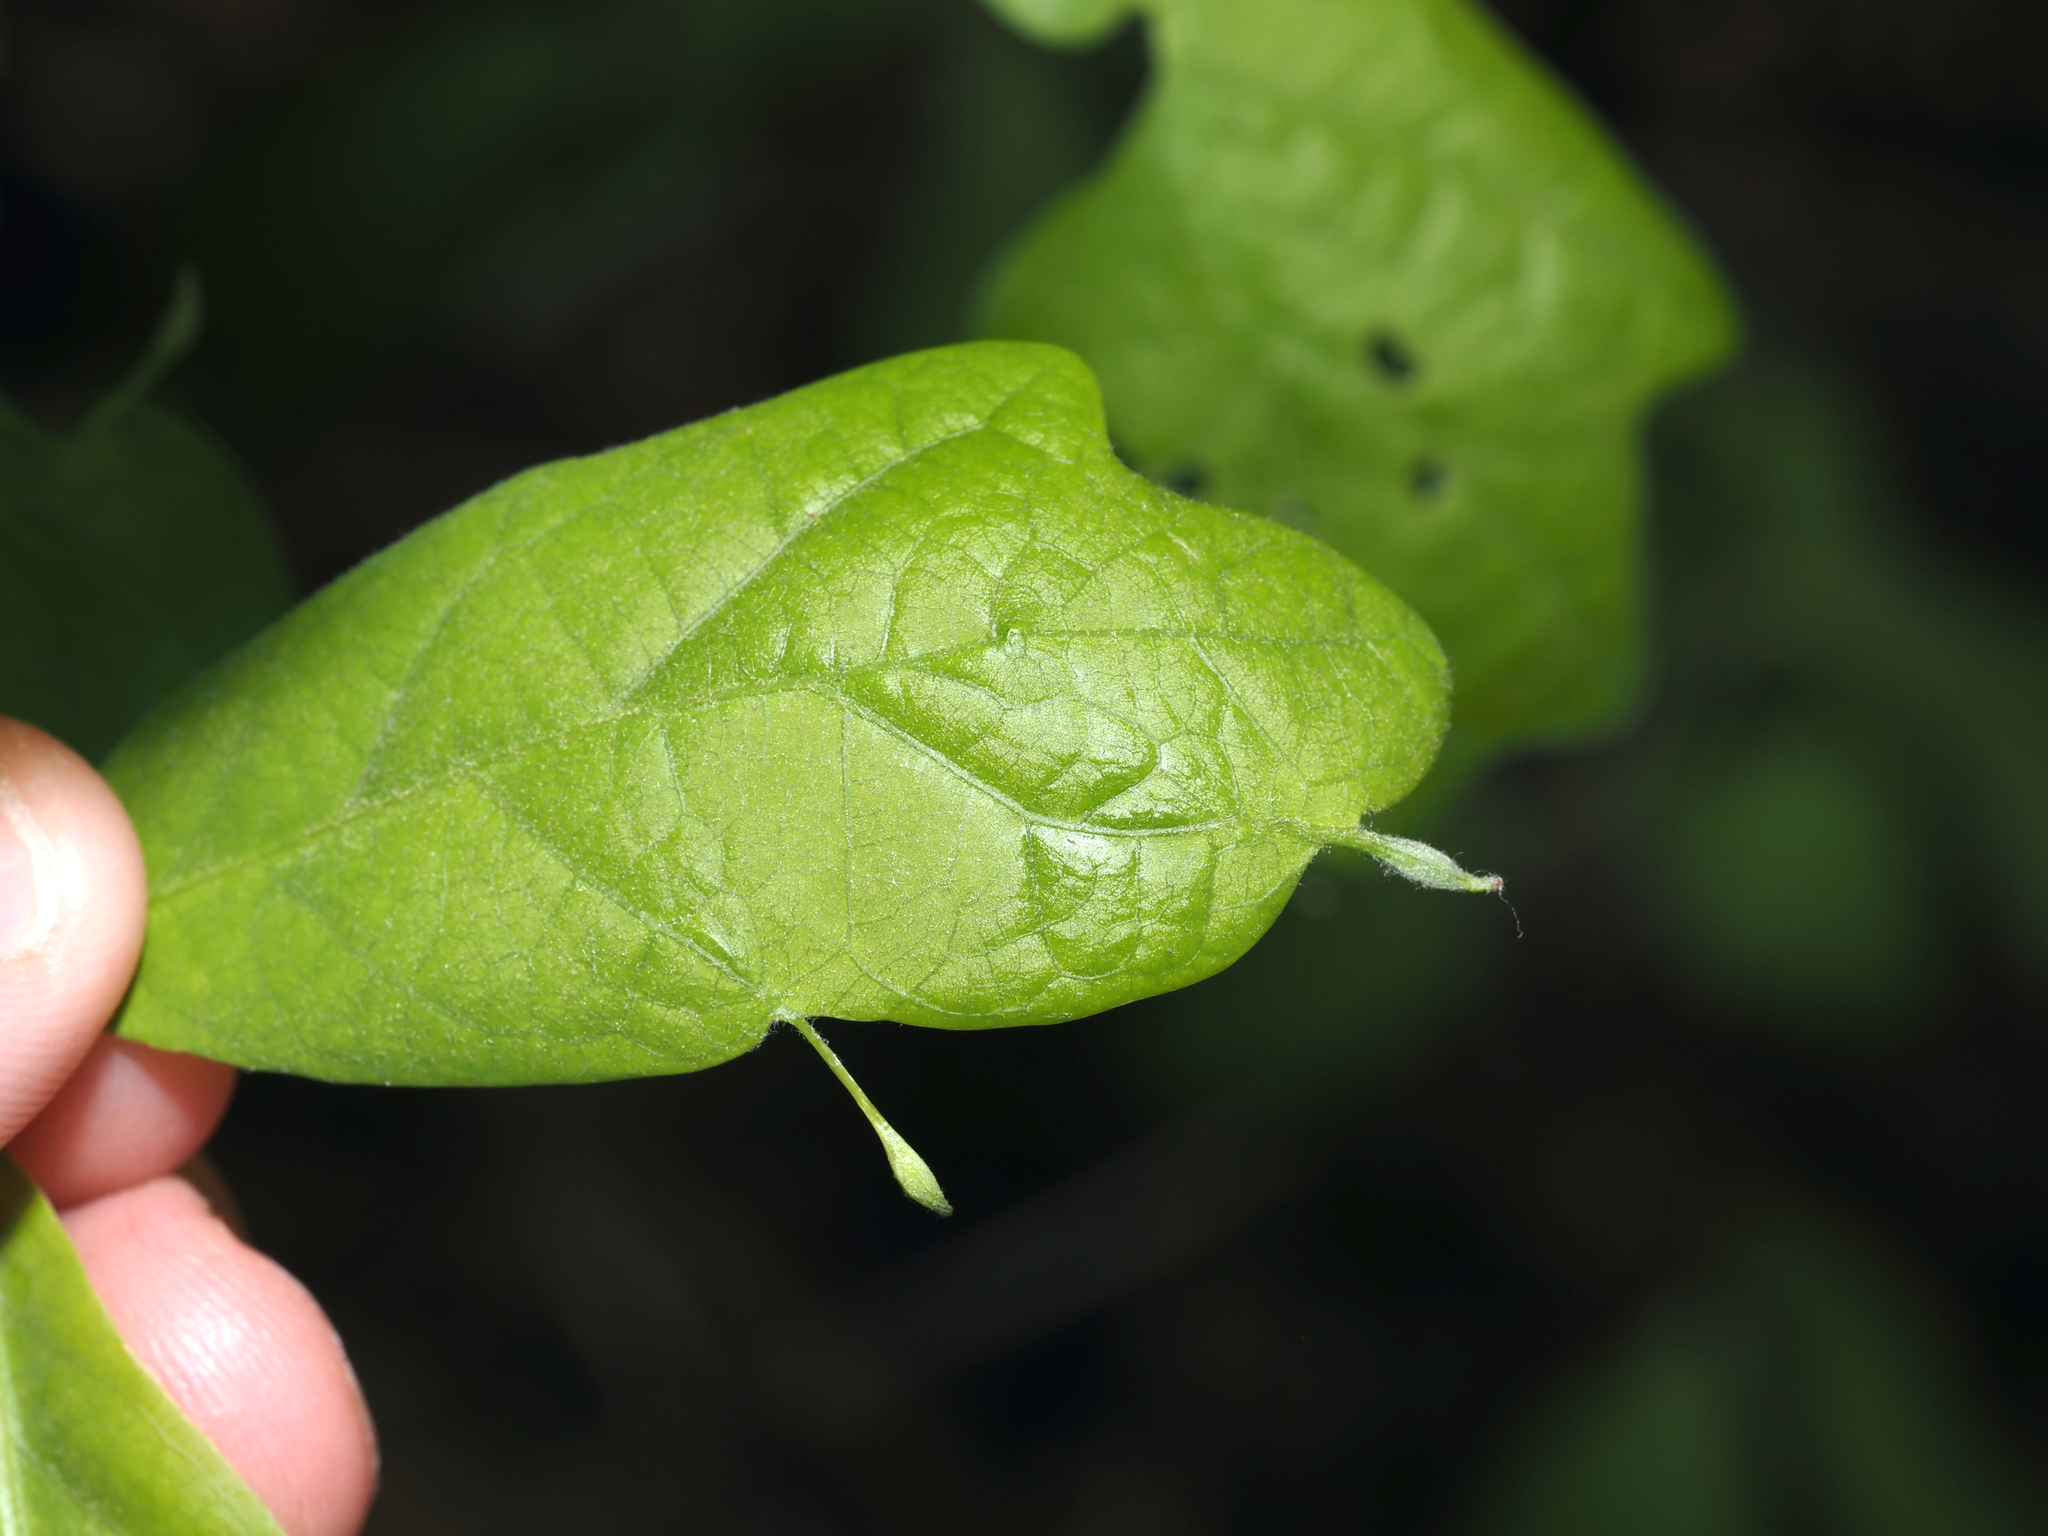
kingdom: Animalia
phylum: Arthropoda
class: Insecta
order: Hymenoptera
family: Cynipidae
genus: Andricus
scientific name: Andricus
